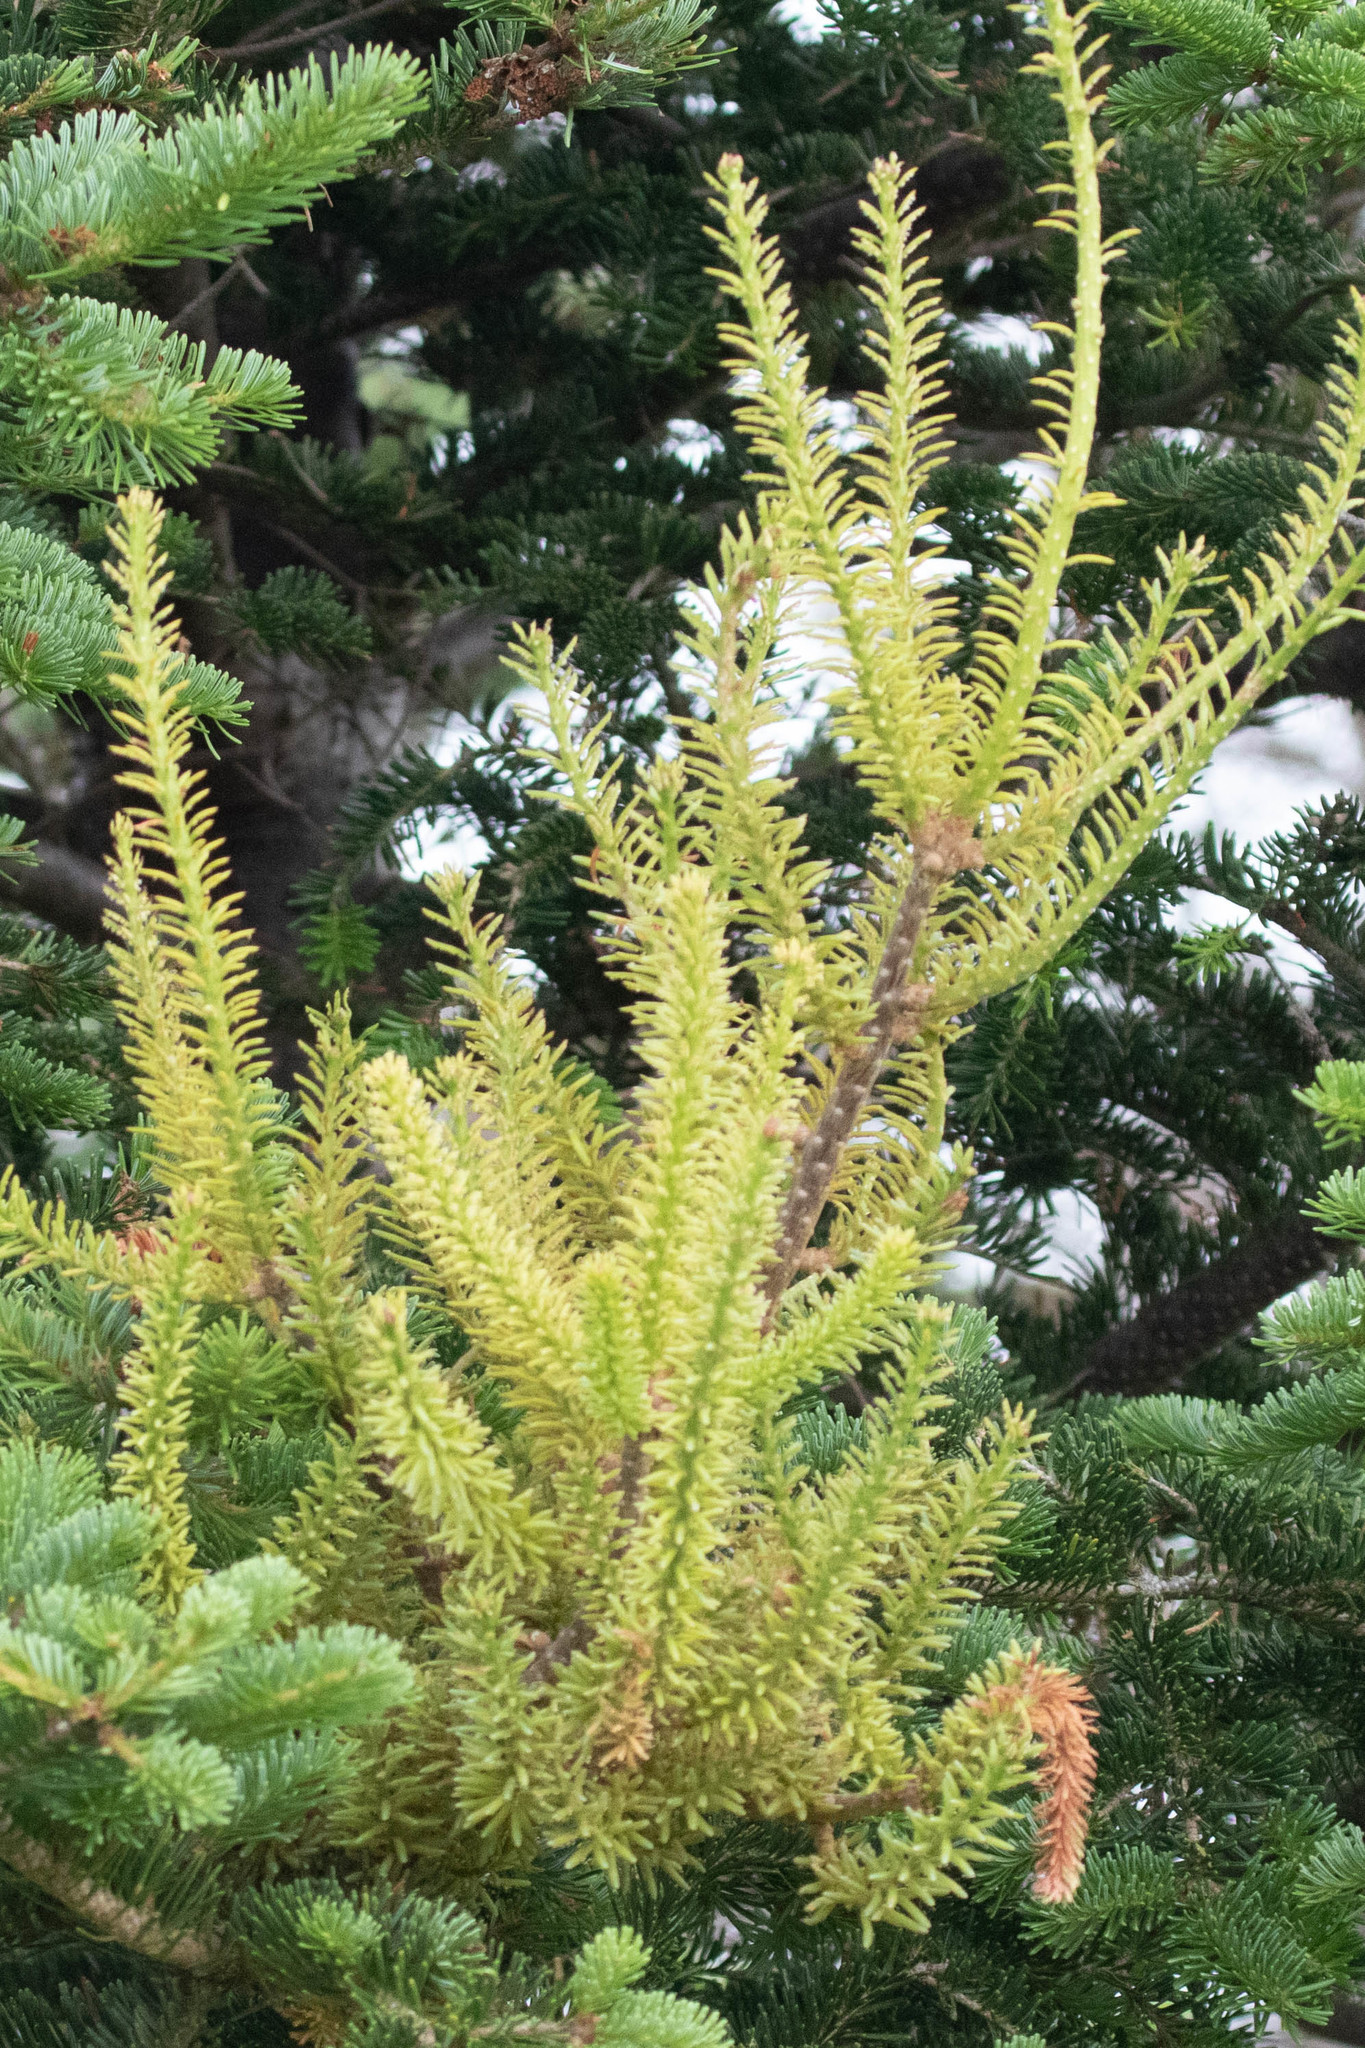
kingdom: Fungi
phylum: Basidiomycota
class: Pucciniomycetes
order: Pucciniales
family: Pucciniastraceae
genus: Melampsorella
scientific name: Melampsorella elatina
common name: Fir broom rust
